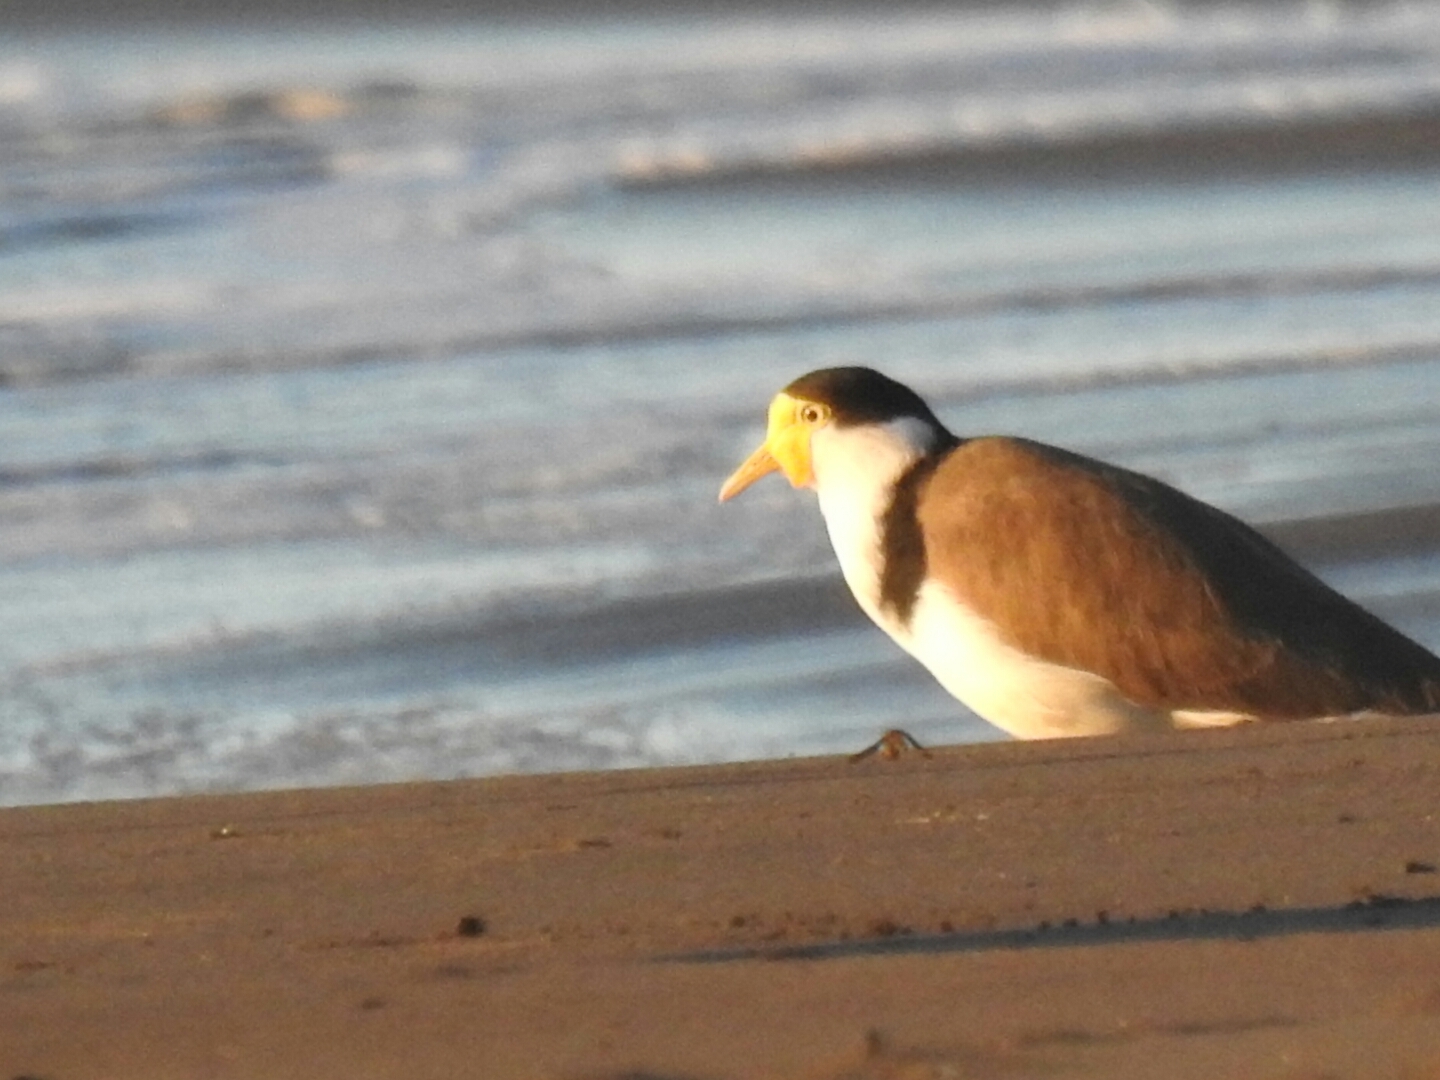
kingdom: Animalia
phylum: Chordata
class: Aves
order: Charadriiformes
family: Charadriidae
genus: Vanellus
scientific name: Vanellus miles
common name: Masked lapwing
